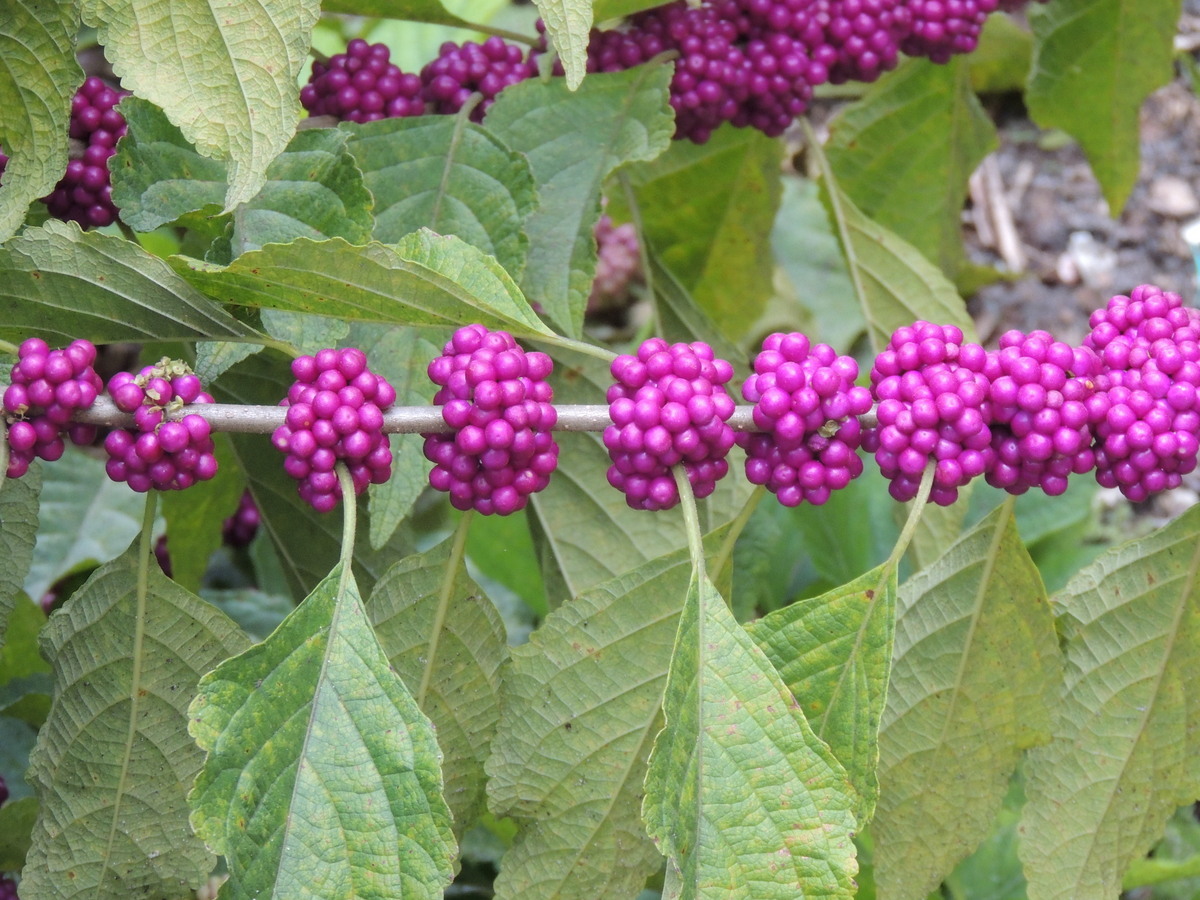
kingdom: Plantae
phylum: Tracheophyta
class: Magnoliopsida
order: Lamiales
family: Lamiaceae
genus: Callicarpa
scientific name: Callicarpa americana
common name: American beautyberry
